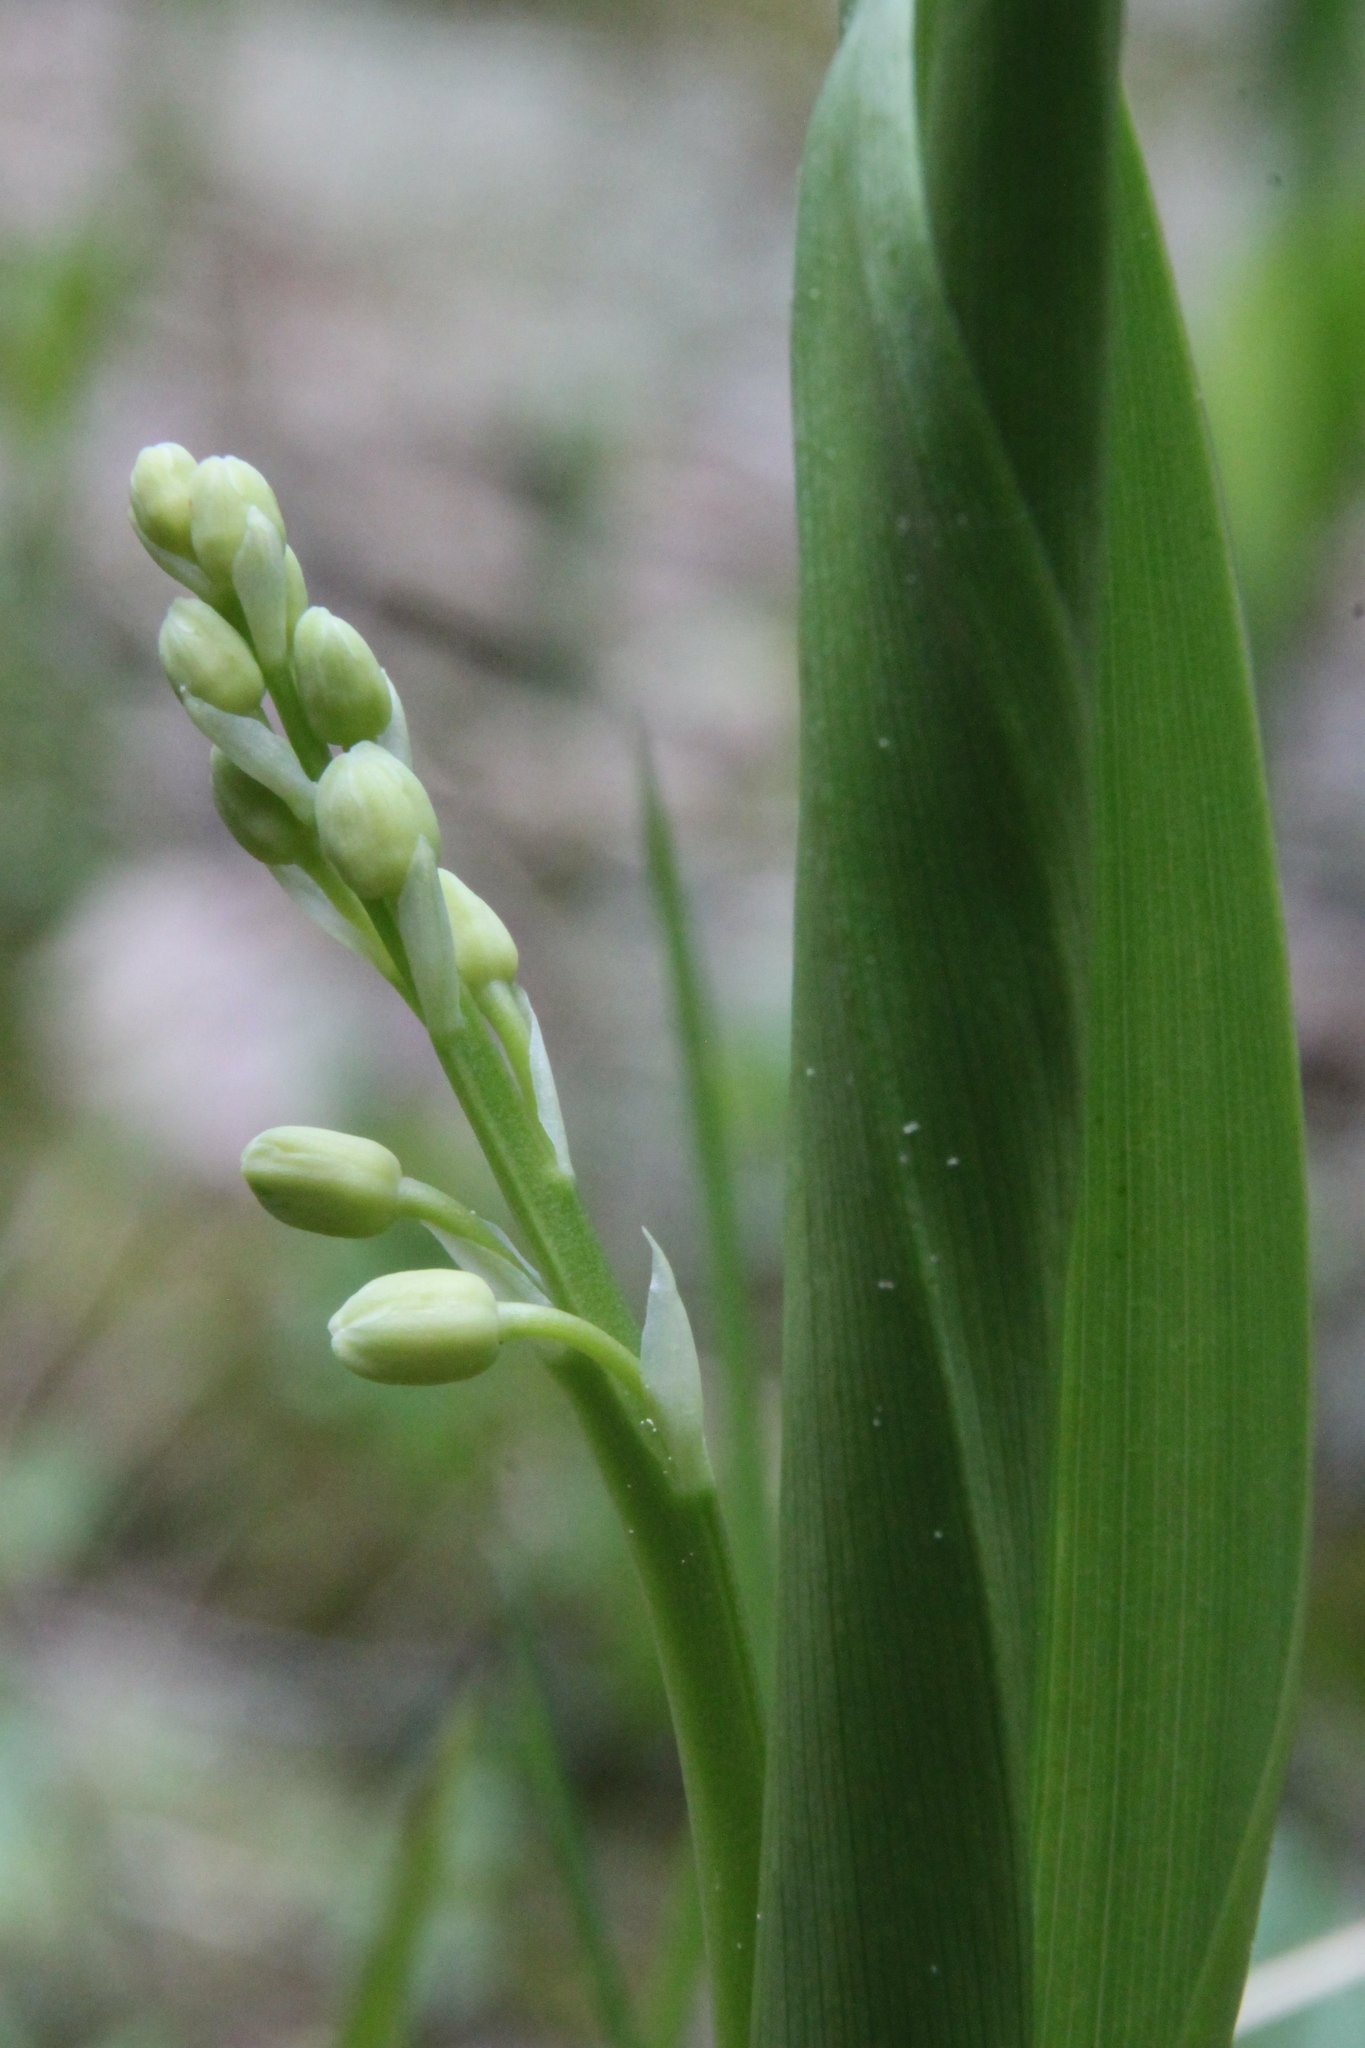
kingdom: Plantae
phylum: Tracheophyta
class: Liliopsida
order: Asparagales
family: Asparagaceae
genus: Convallaria
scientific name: Convallaria majalis
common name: Lily-of-the-valley
